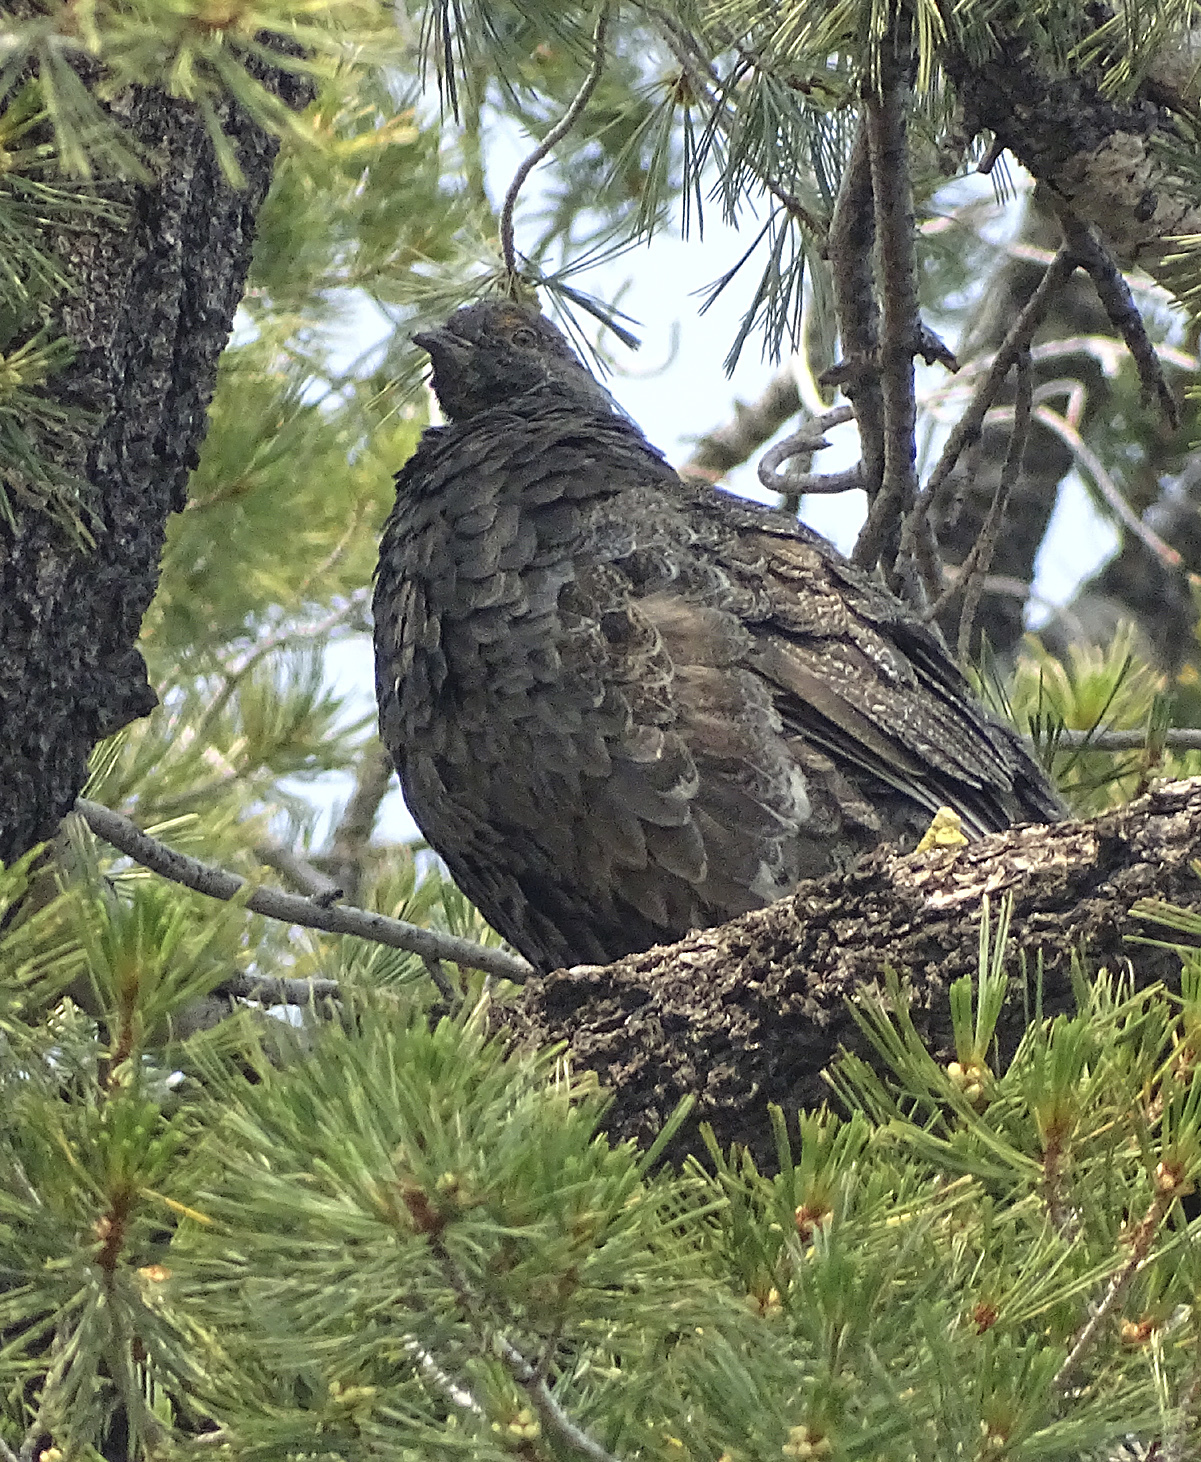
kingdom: Animalia
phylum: Chordata
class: Aves
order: Galliformes
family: Phasianidae
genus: Dendragapus
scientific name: Dendragapus fuliginosus
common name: Sooty grouse
